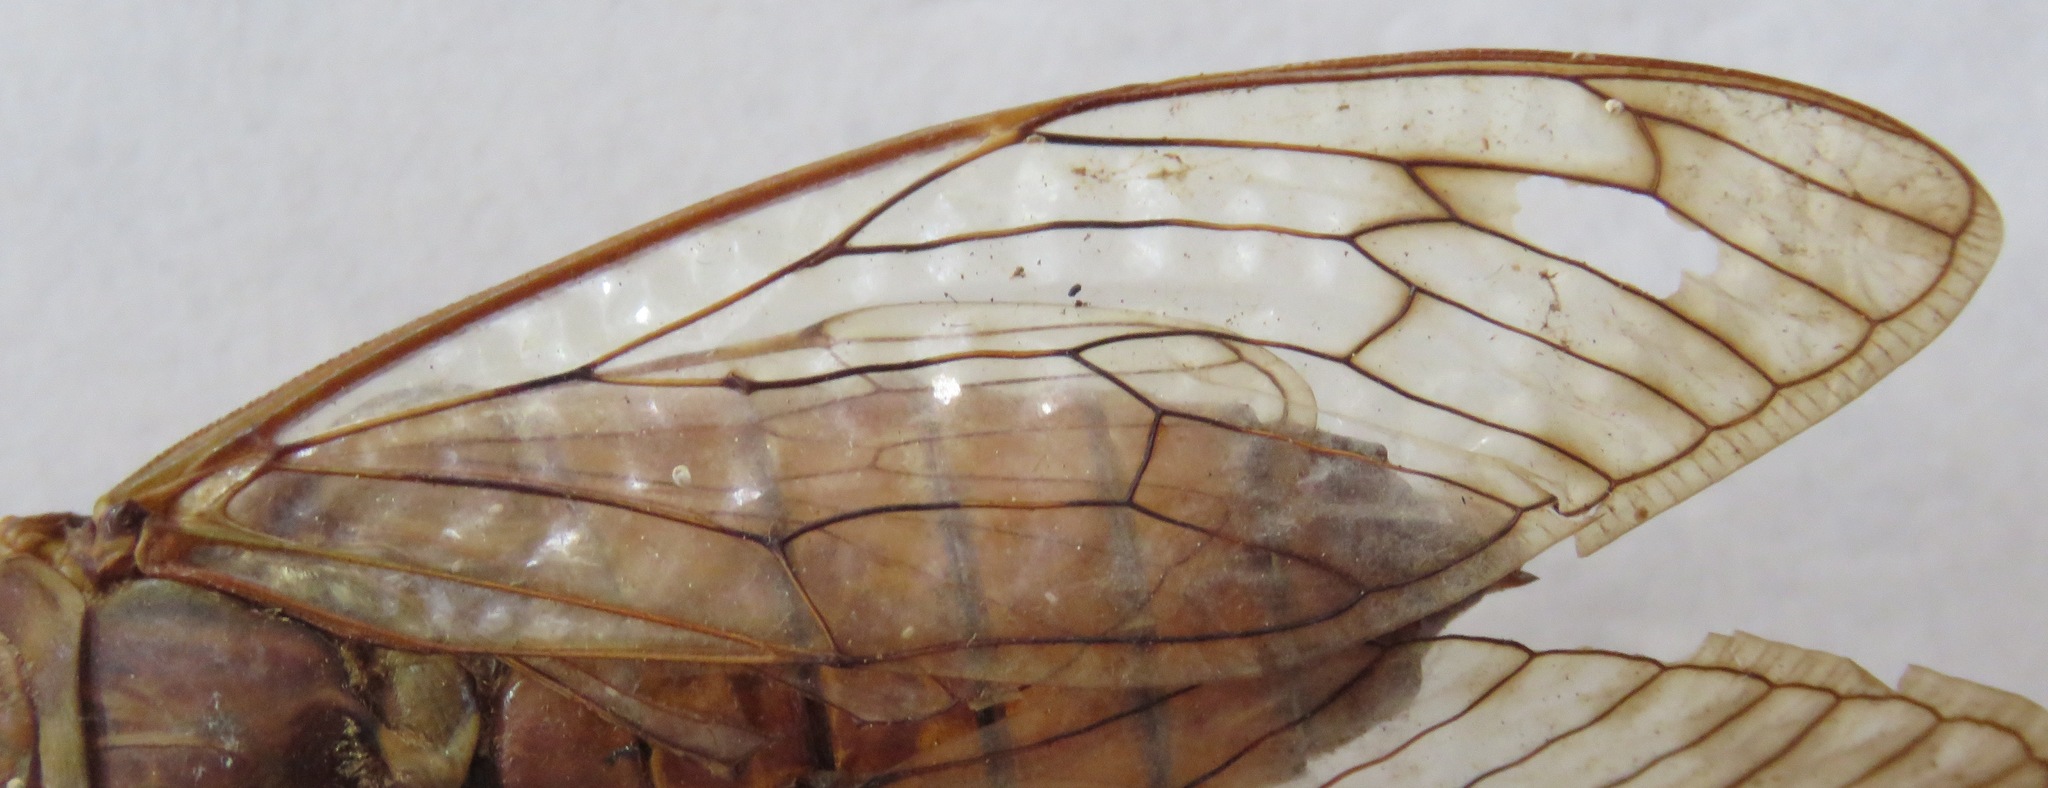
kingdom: Animalia
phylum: Arthropoda
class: Insecta
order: Hemiptera
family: Cicadidae
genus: Pomponia
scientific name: Pomponia yayeyamana
